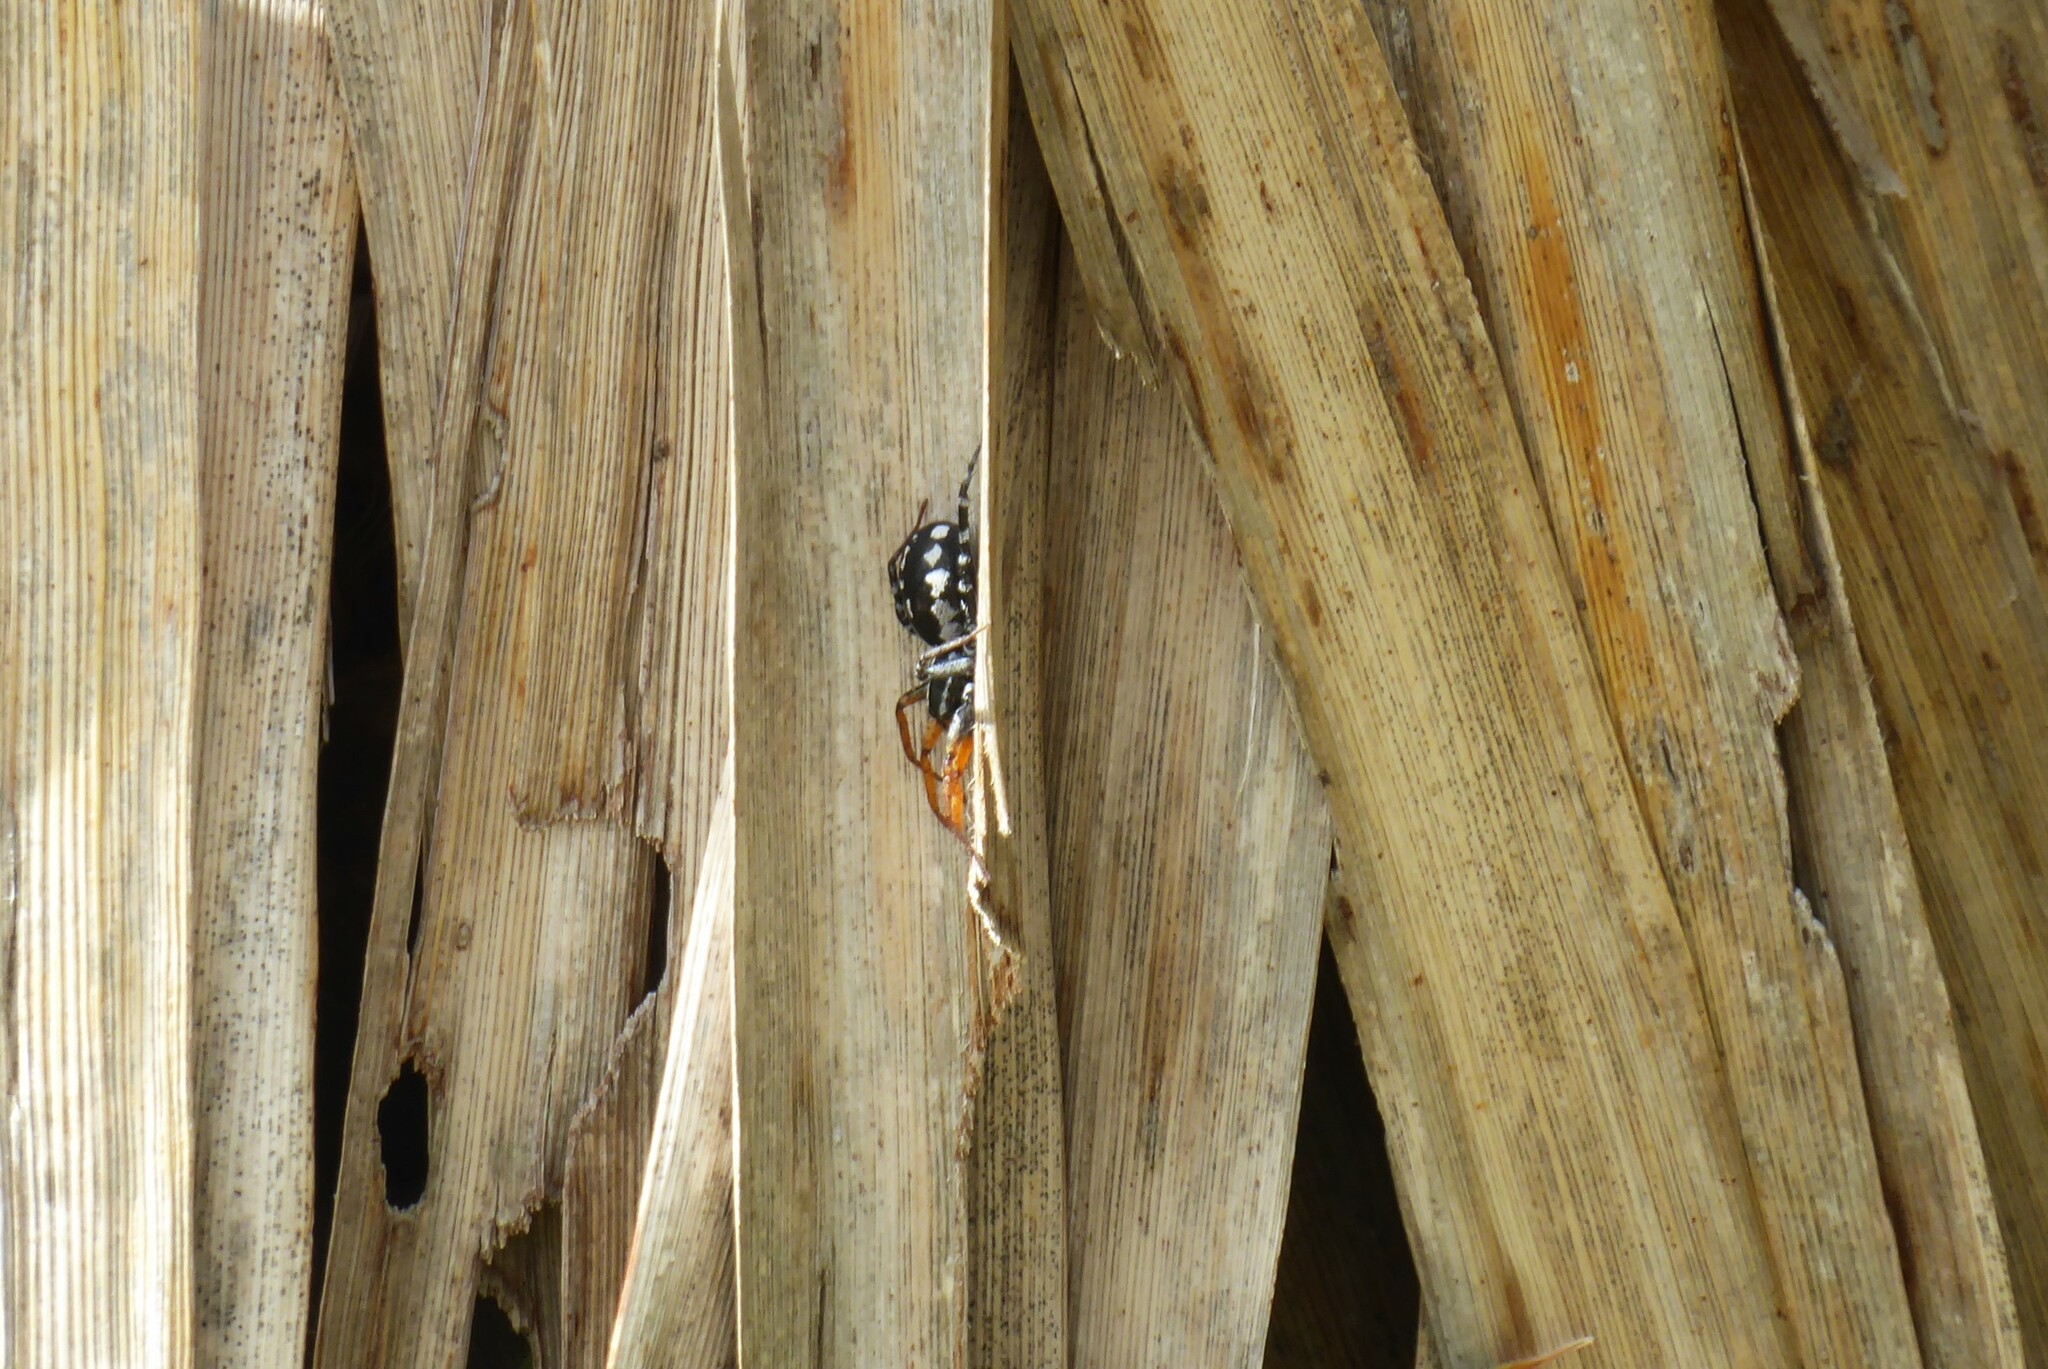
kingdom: Animalia
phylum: Arthropoda
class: Arachnida
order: Araneae
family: Corinnidae
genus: Nyssus
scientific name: Nyssus coloripes
